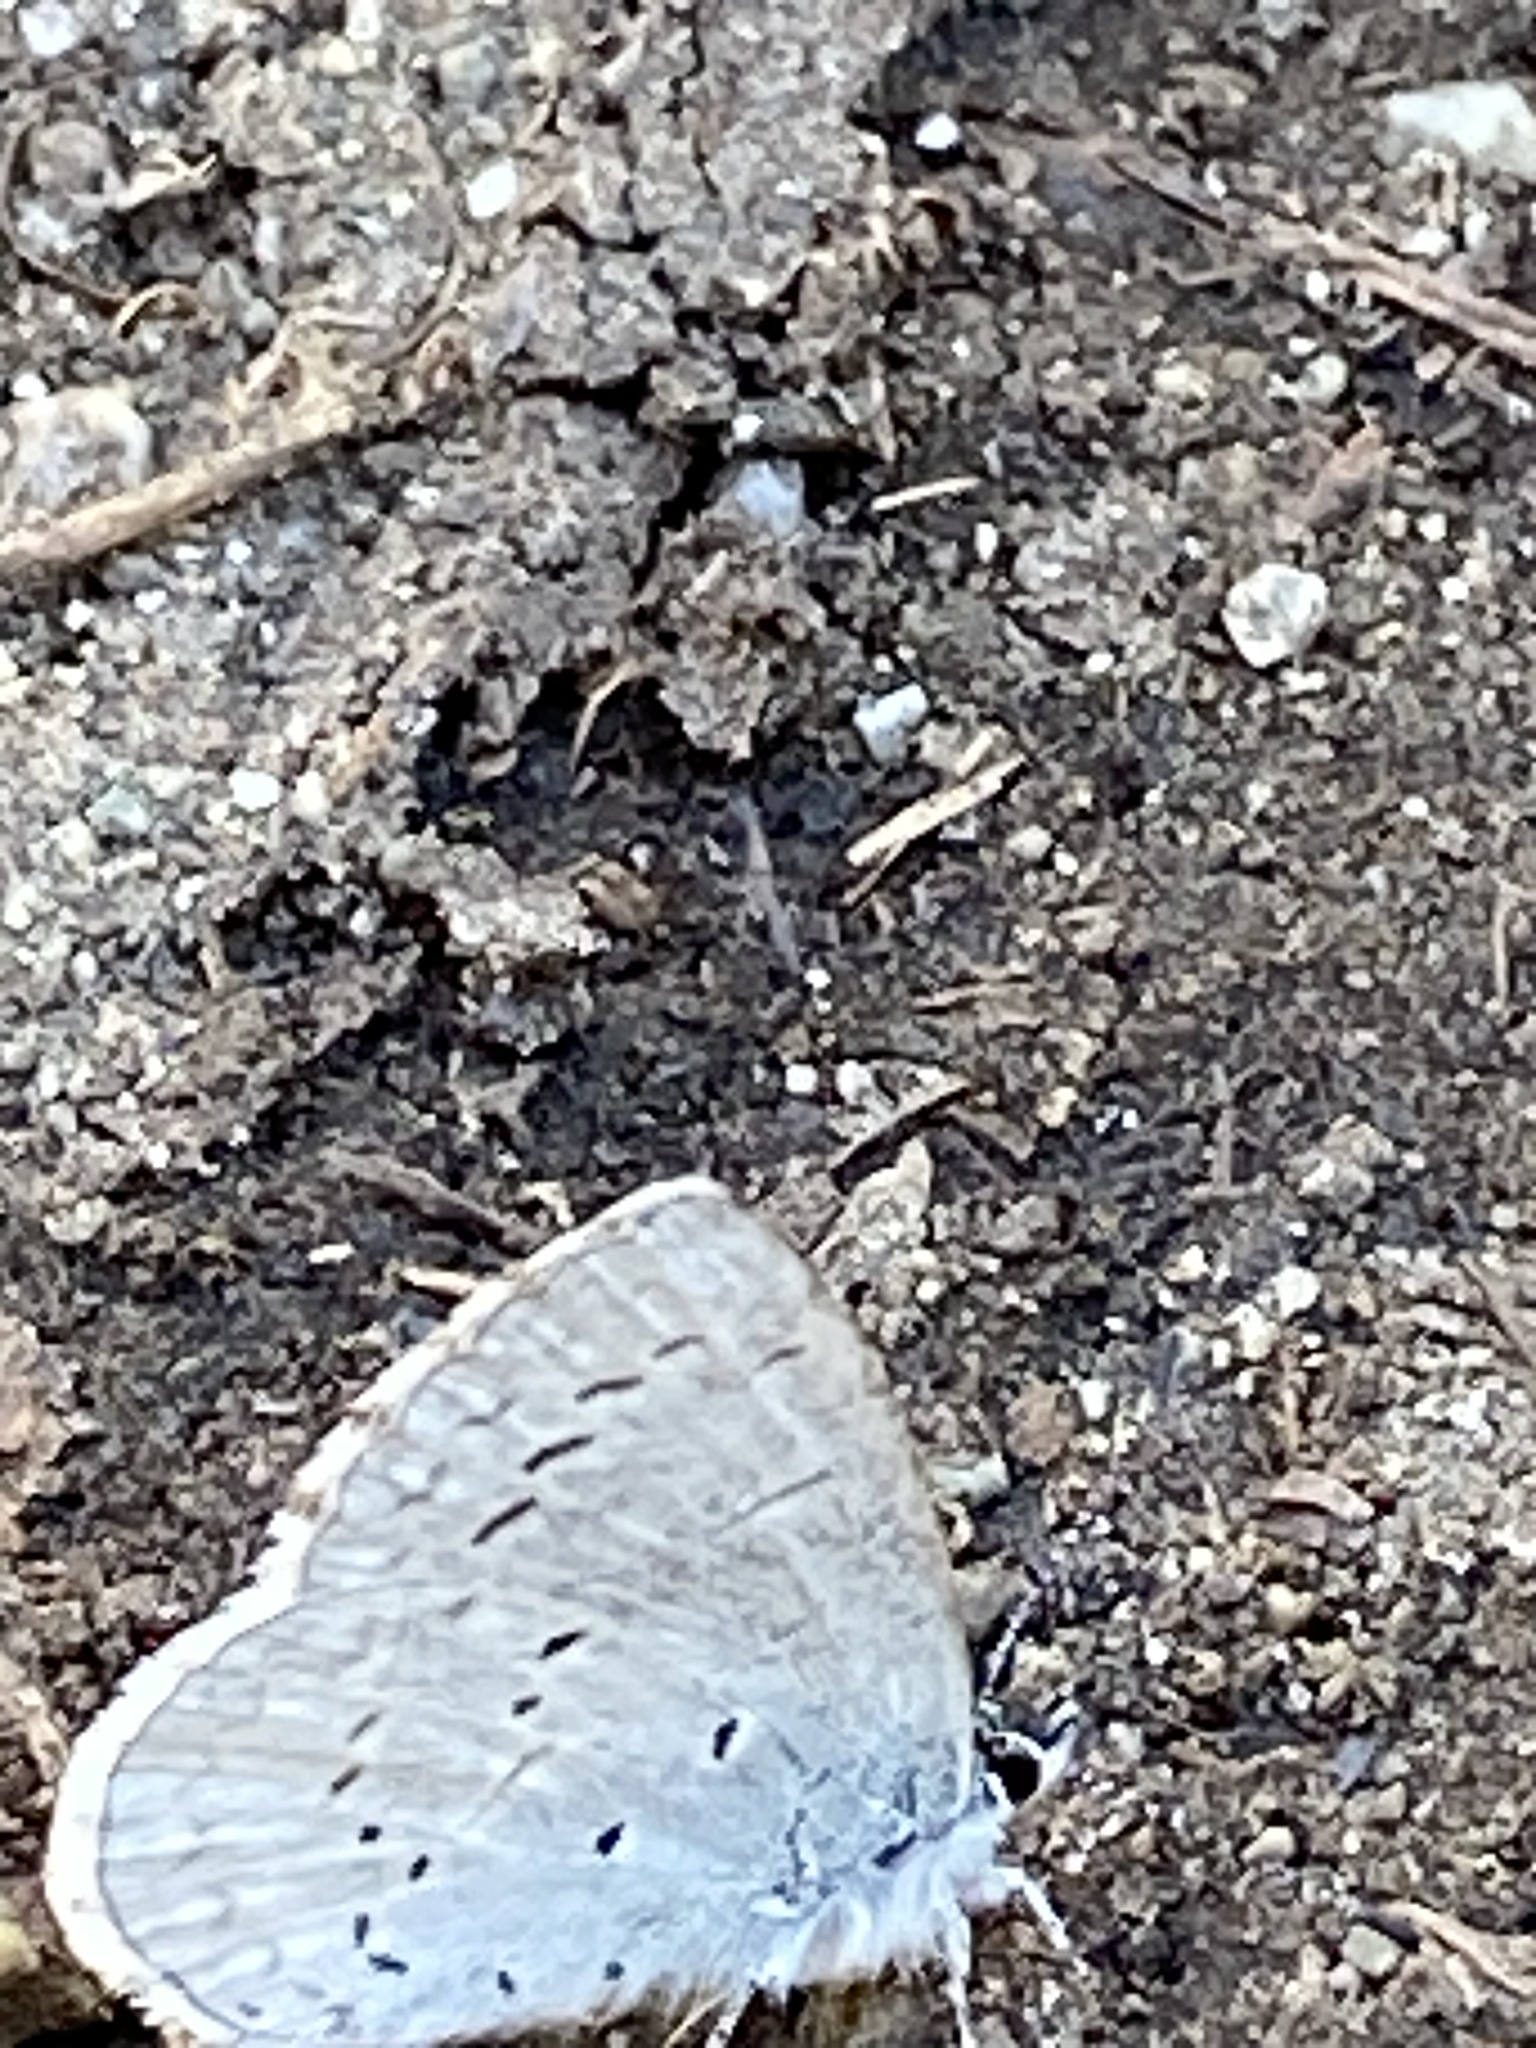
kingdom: Animalia
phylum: Arthropoda
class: Insecta
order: Lepidoptera
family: Lycaenidae
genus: Celastrina
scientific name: Celastrina ladon
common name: Spring azure
